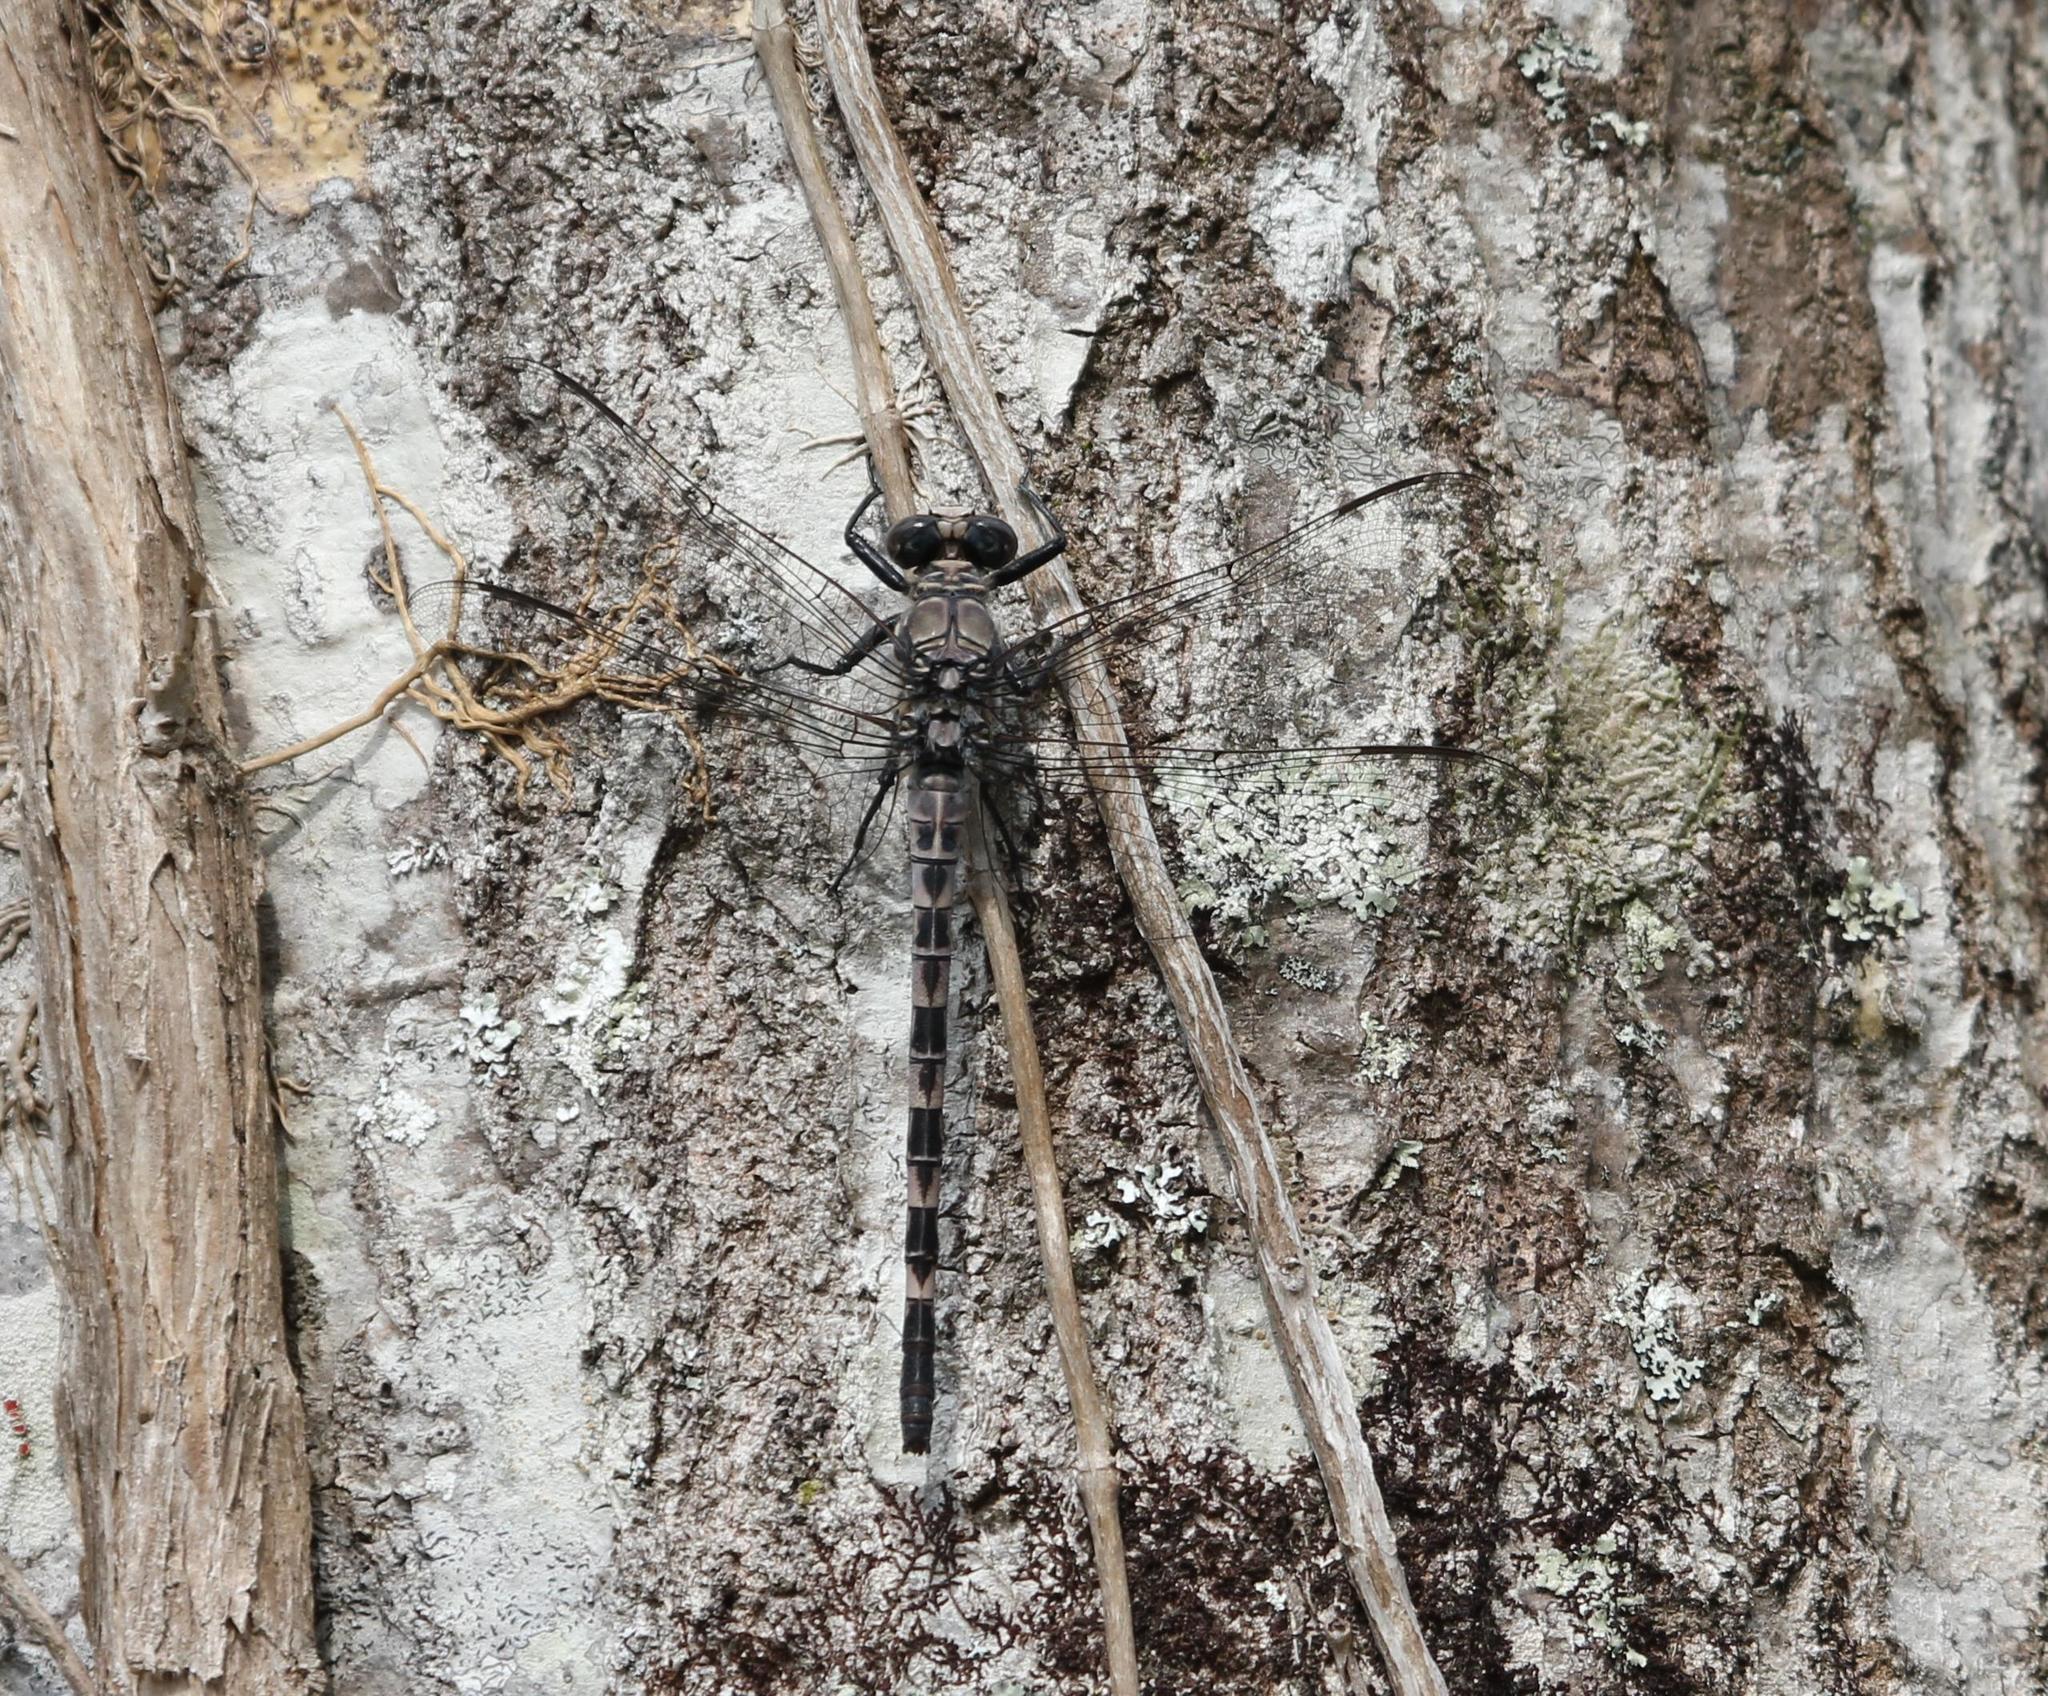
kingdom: Animalia
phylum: Arthropoda
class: Insecta
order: Odonata
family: Petaluridae
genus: Tachopteryx
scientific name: Tachopteryx thoreyi
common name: Gray petaltail
